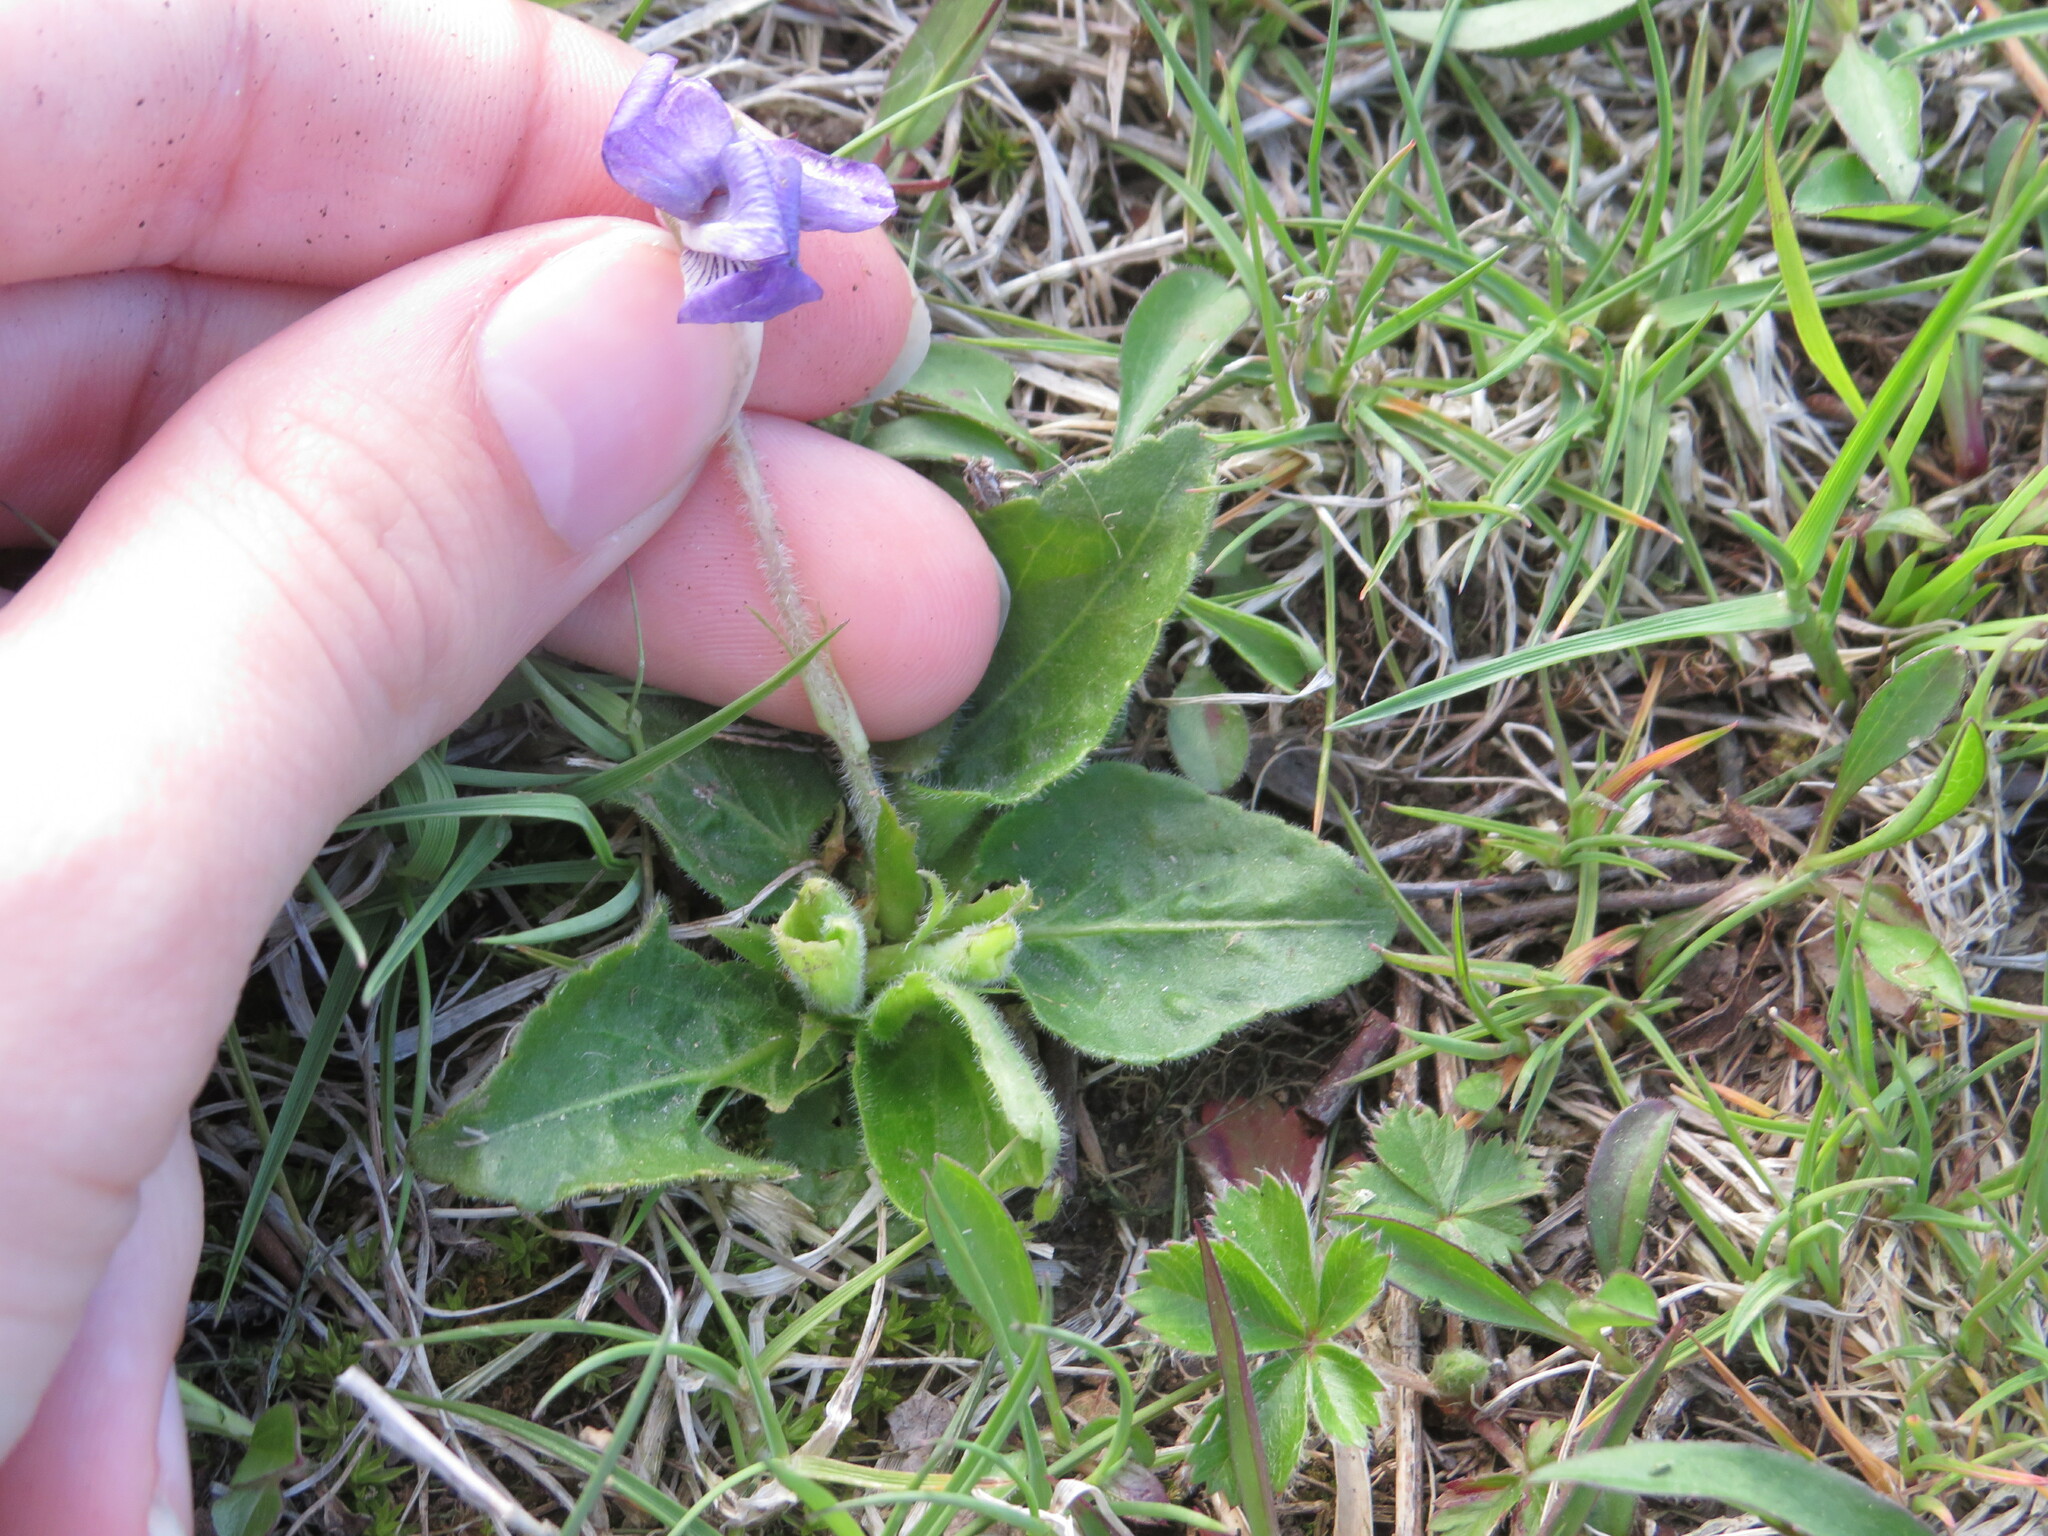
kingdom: Plantae
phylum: Tracheophyta
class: Magnoliopsida
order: Malpighiales
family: Violaceae
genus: Viola
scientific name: Viola fimbriatula
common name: Sand violet
